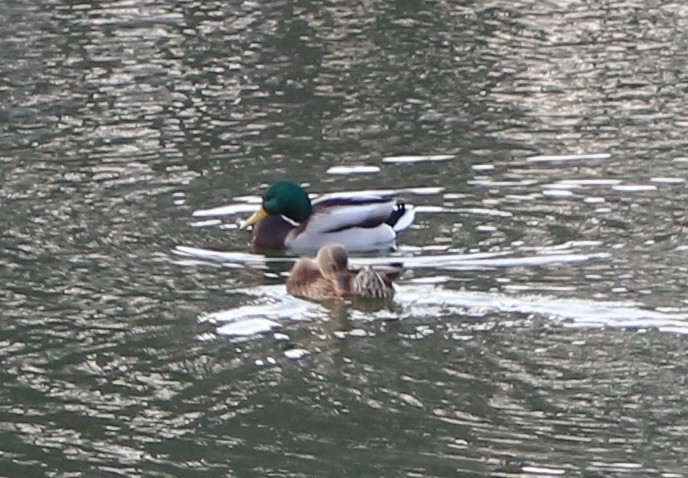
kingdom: Animalia
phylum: Chordata
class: Aves
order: Anseriformes
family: Anatidae
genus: Anas
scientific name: Anas platyrhynchos
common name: Mallard
